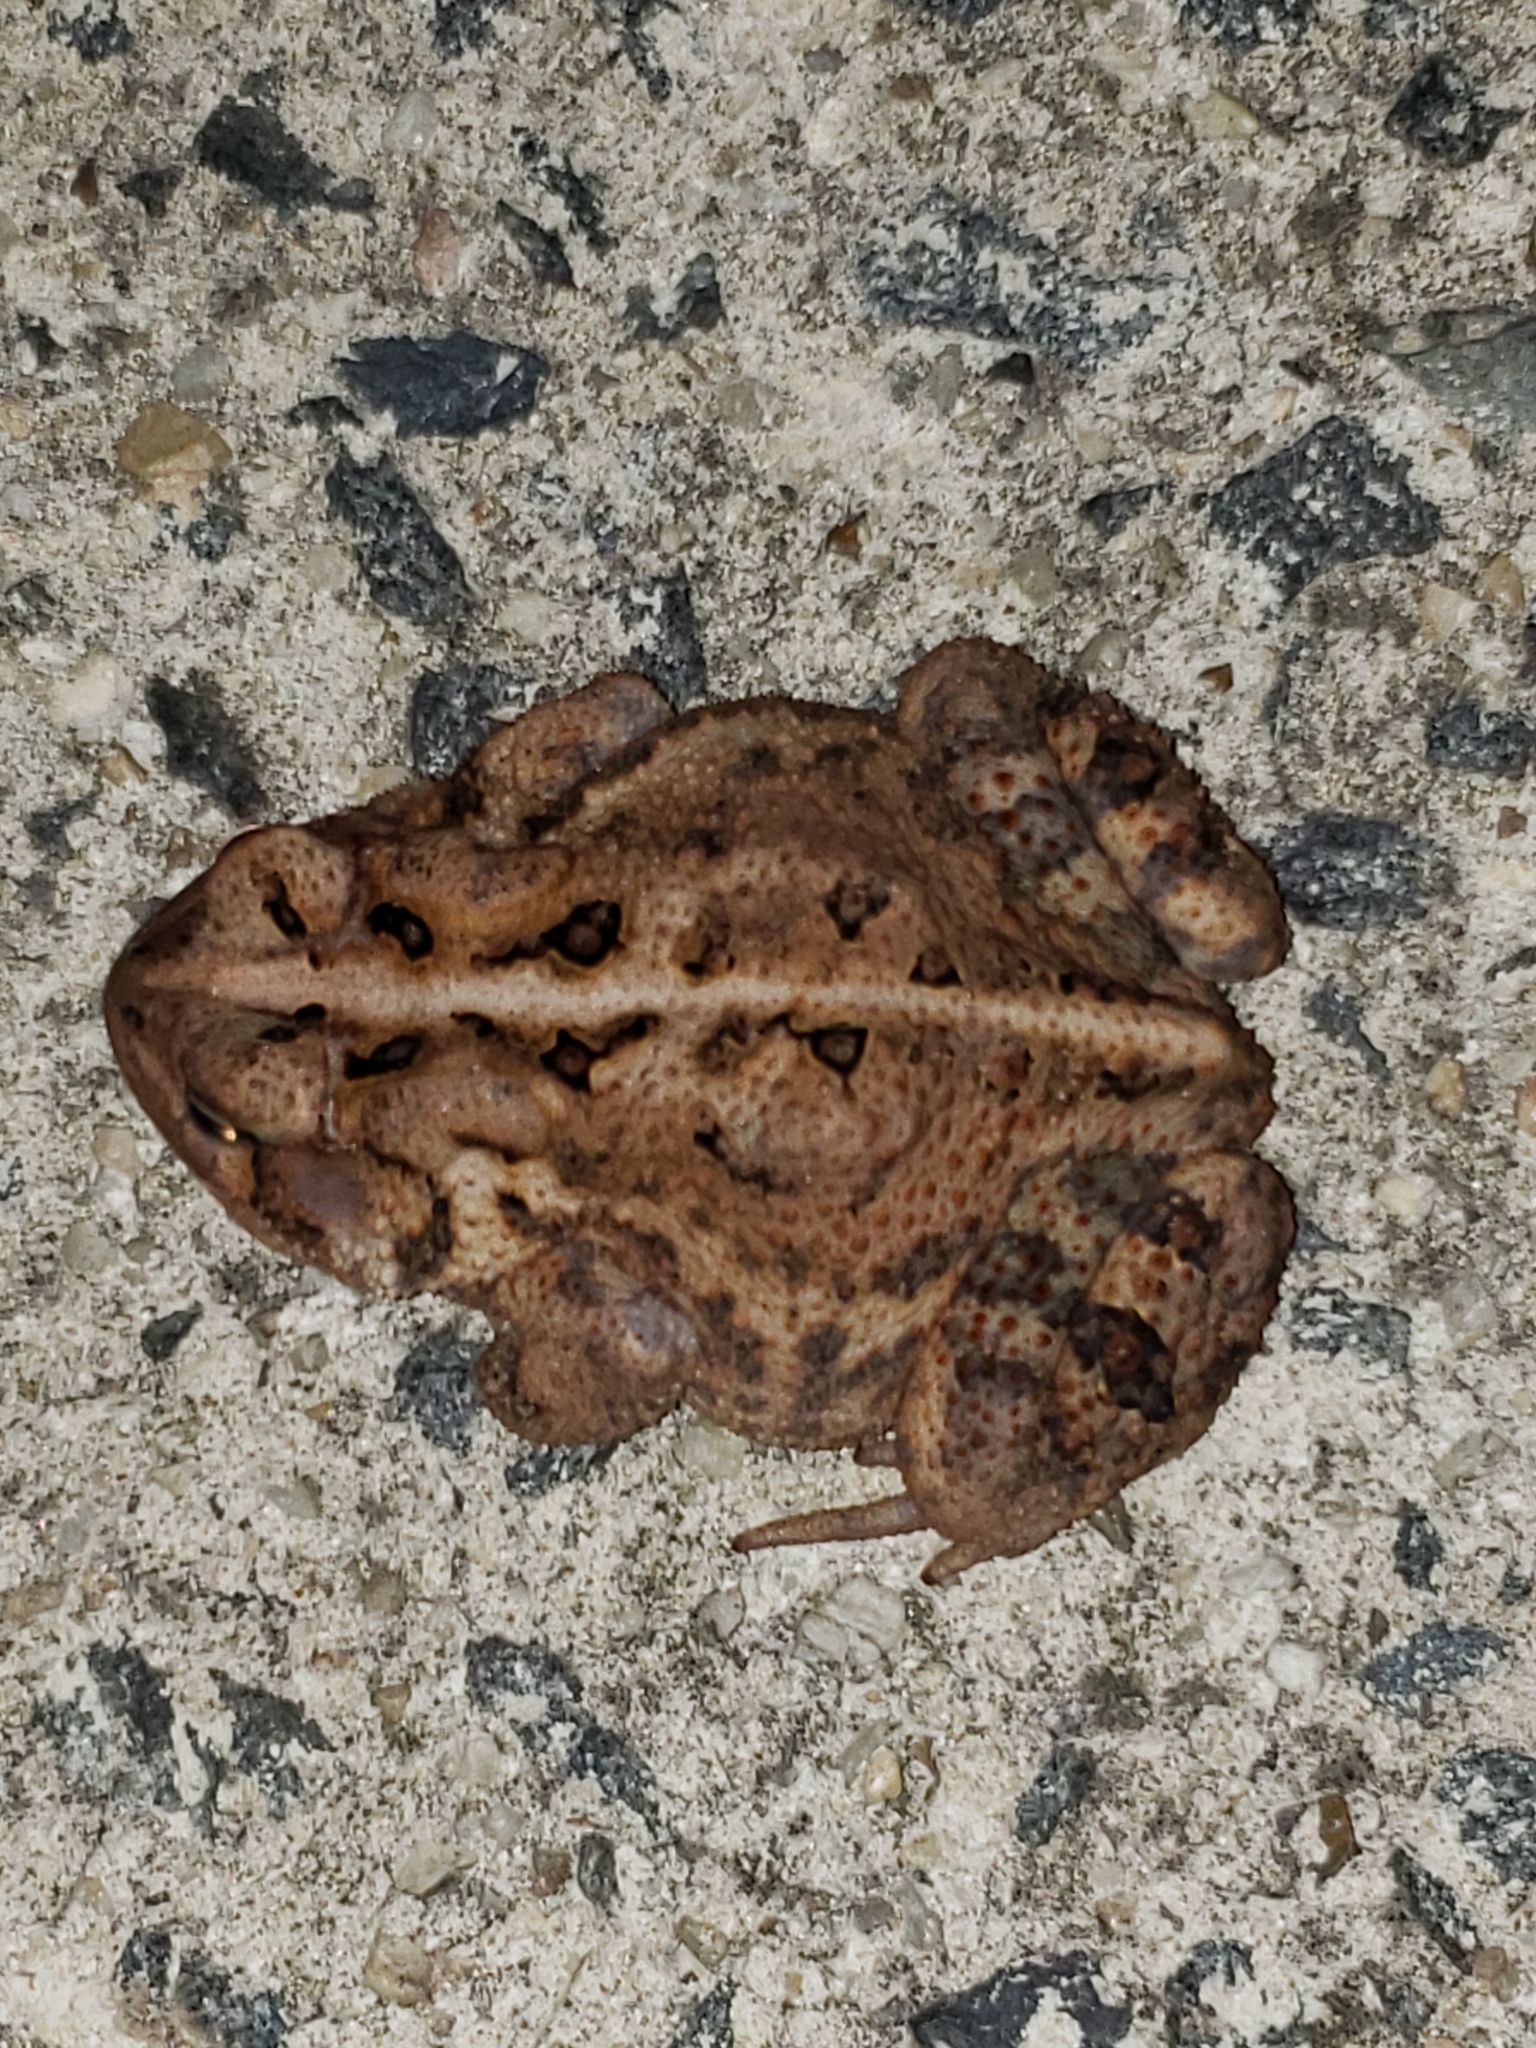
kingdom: Animalia
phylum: Chordata
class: Amphibia
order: Anura
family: Bufonidae
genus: Anaxyrus
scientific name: Anaxyrus americanus
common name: American toad
